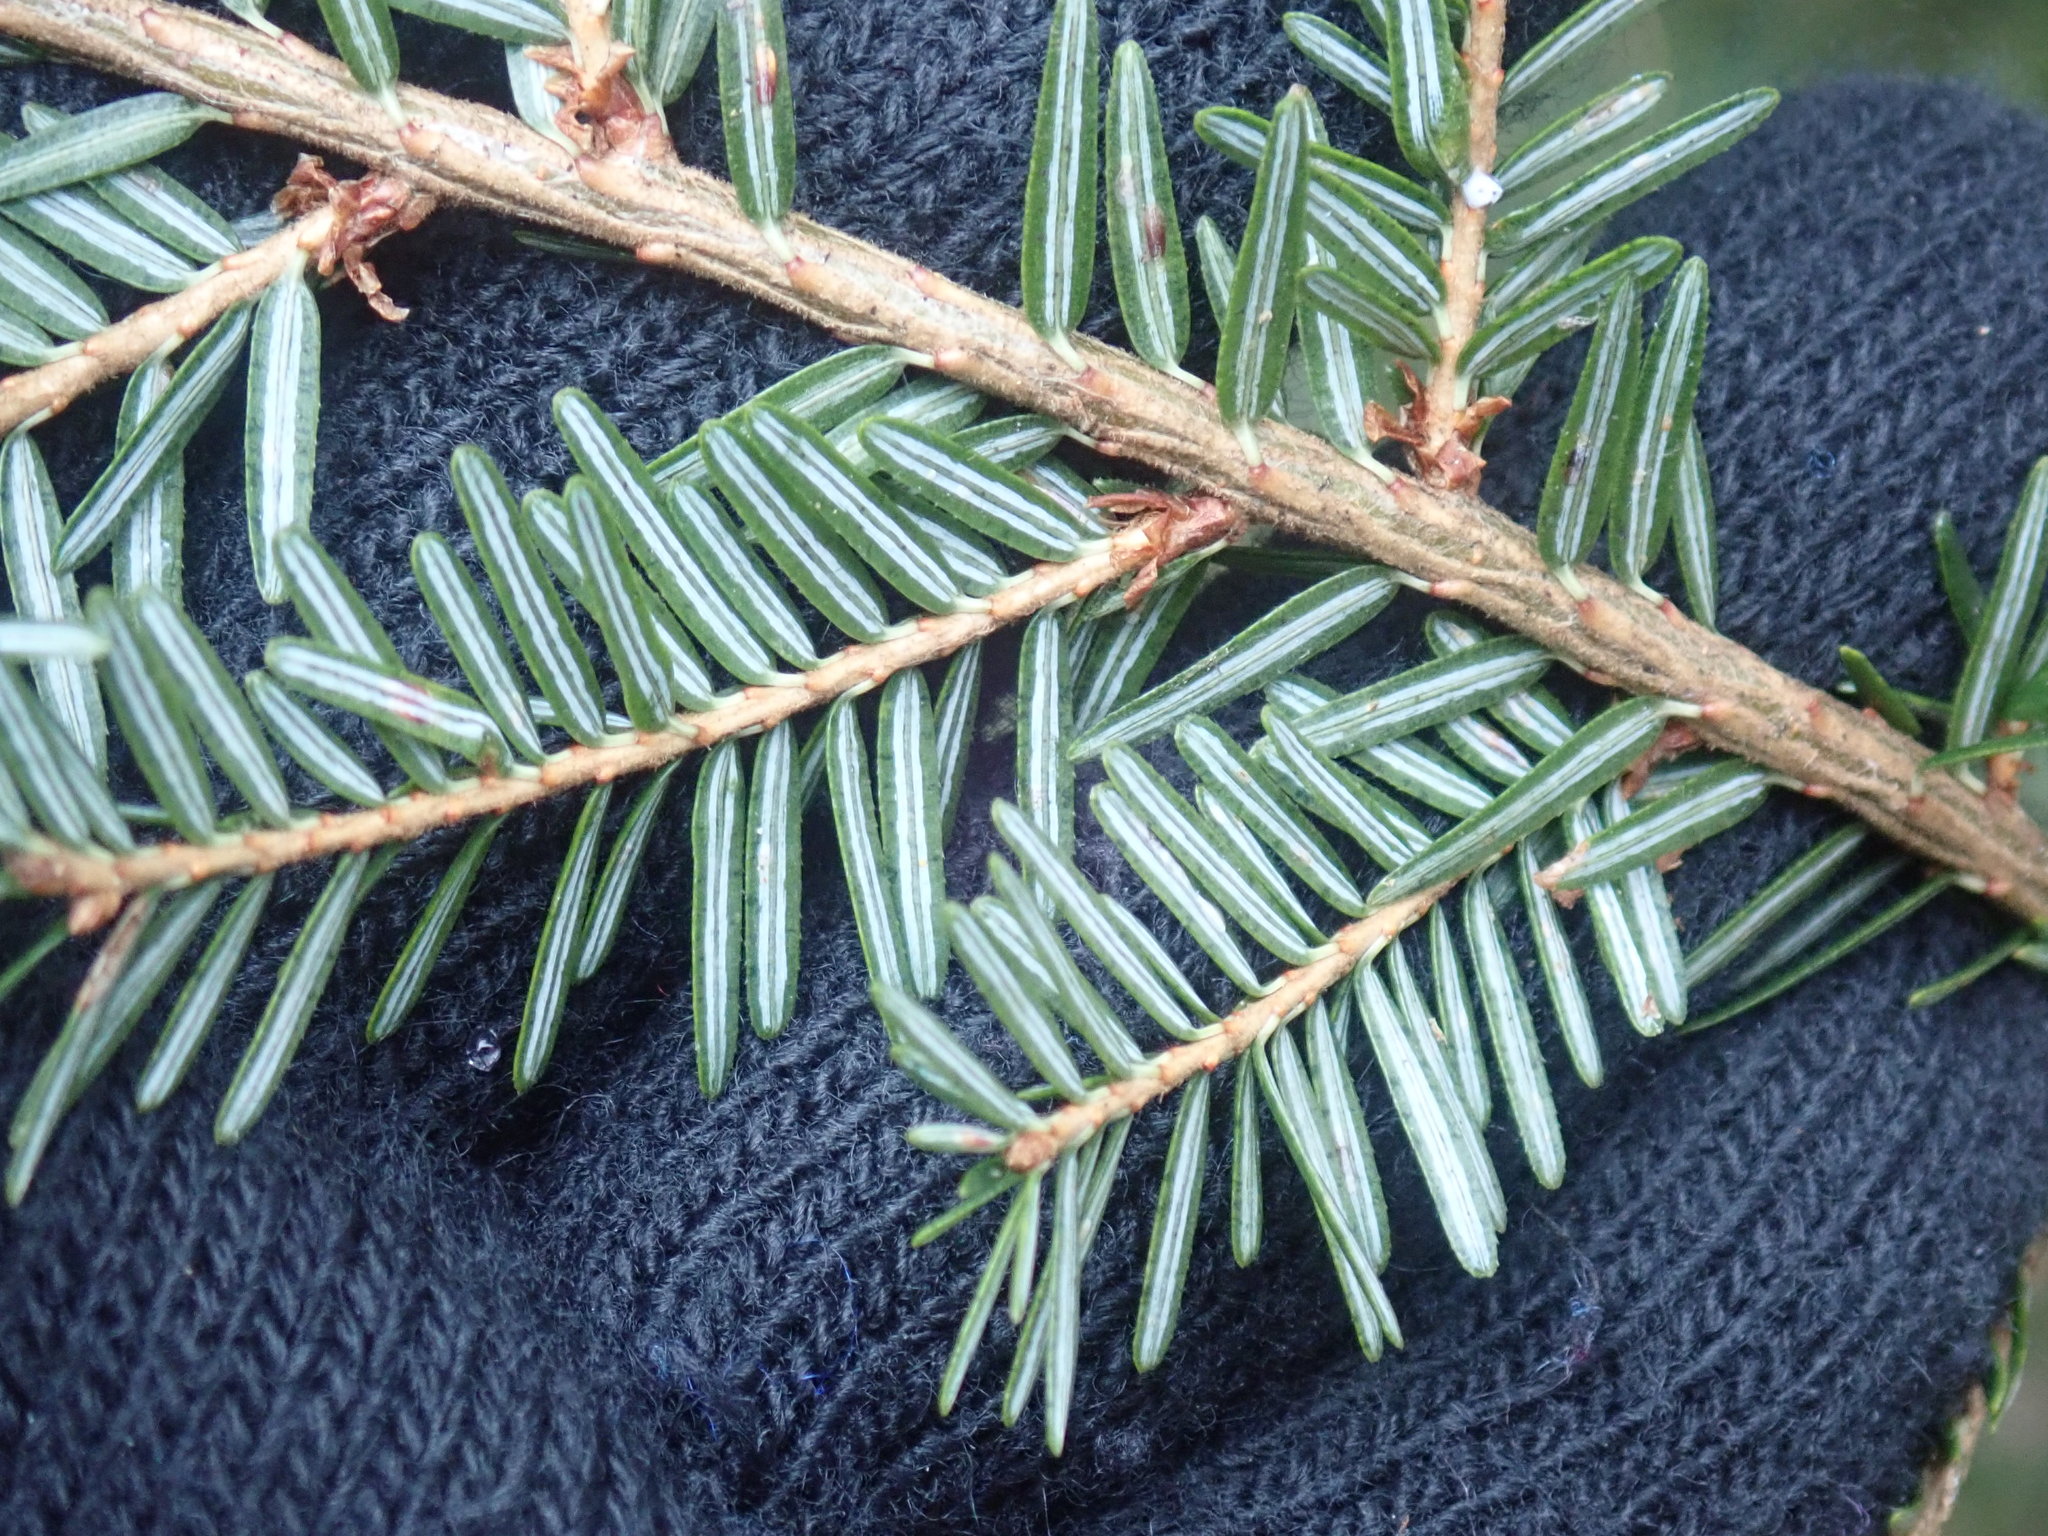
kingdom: Plantae
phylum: Tracheophyta
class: Pinopsida
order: Pinales
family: Pinaceae
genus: Tsuga
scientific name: Tsuga canadensis
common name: Eastern hemlock
